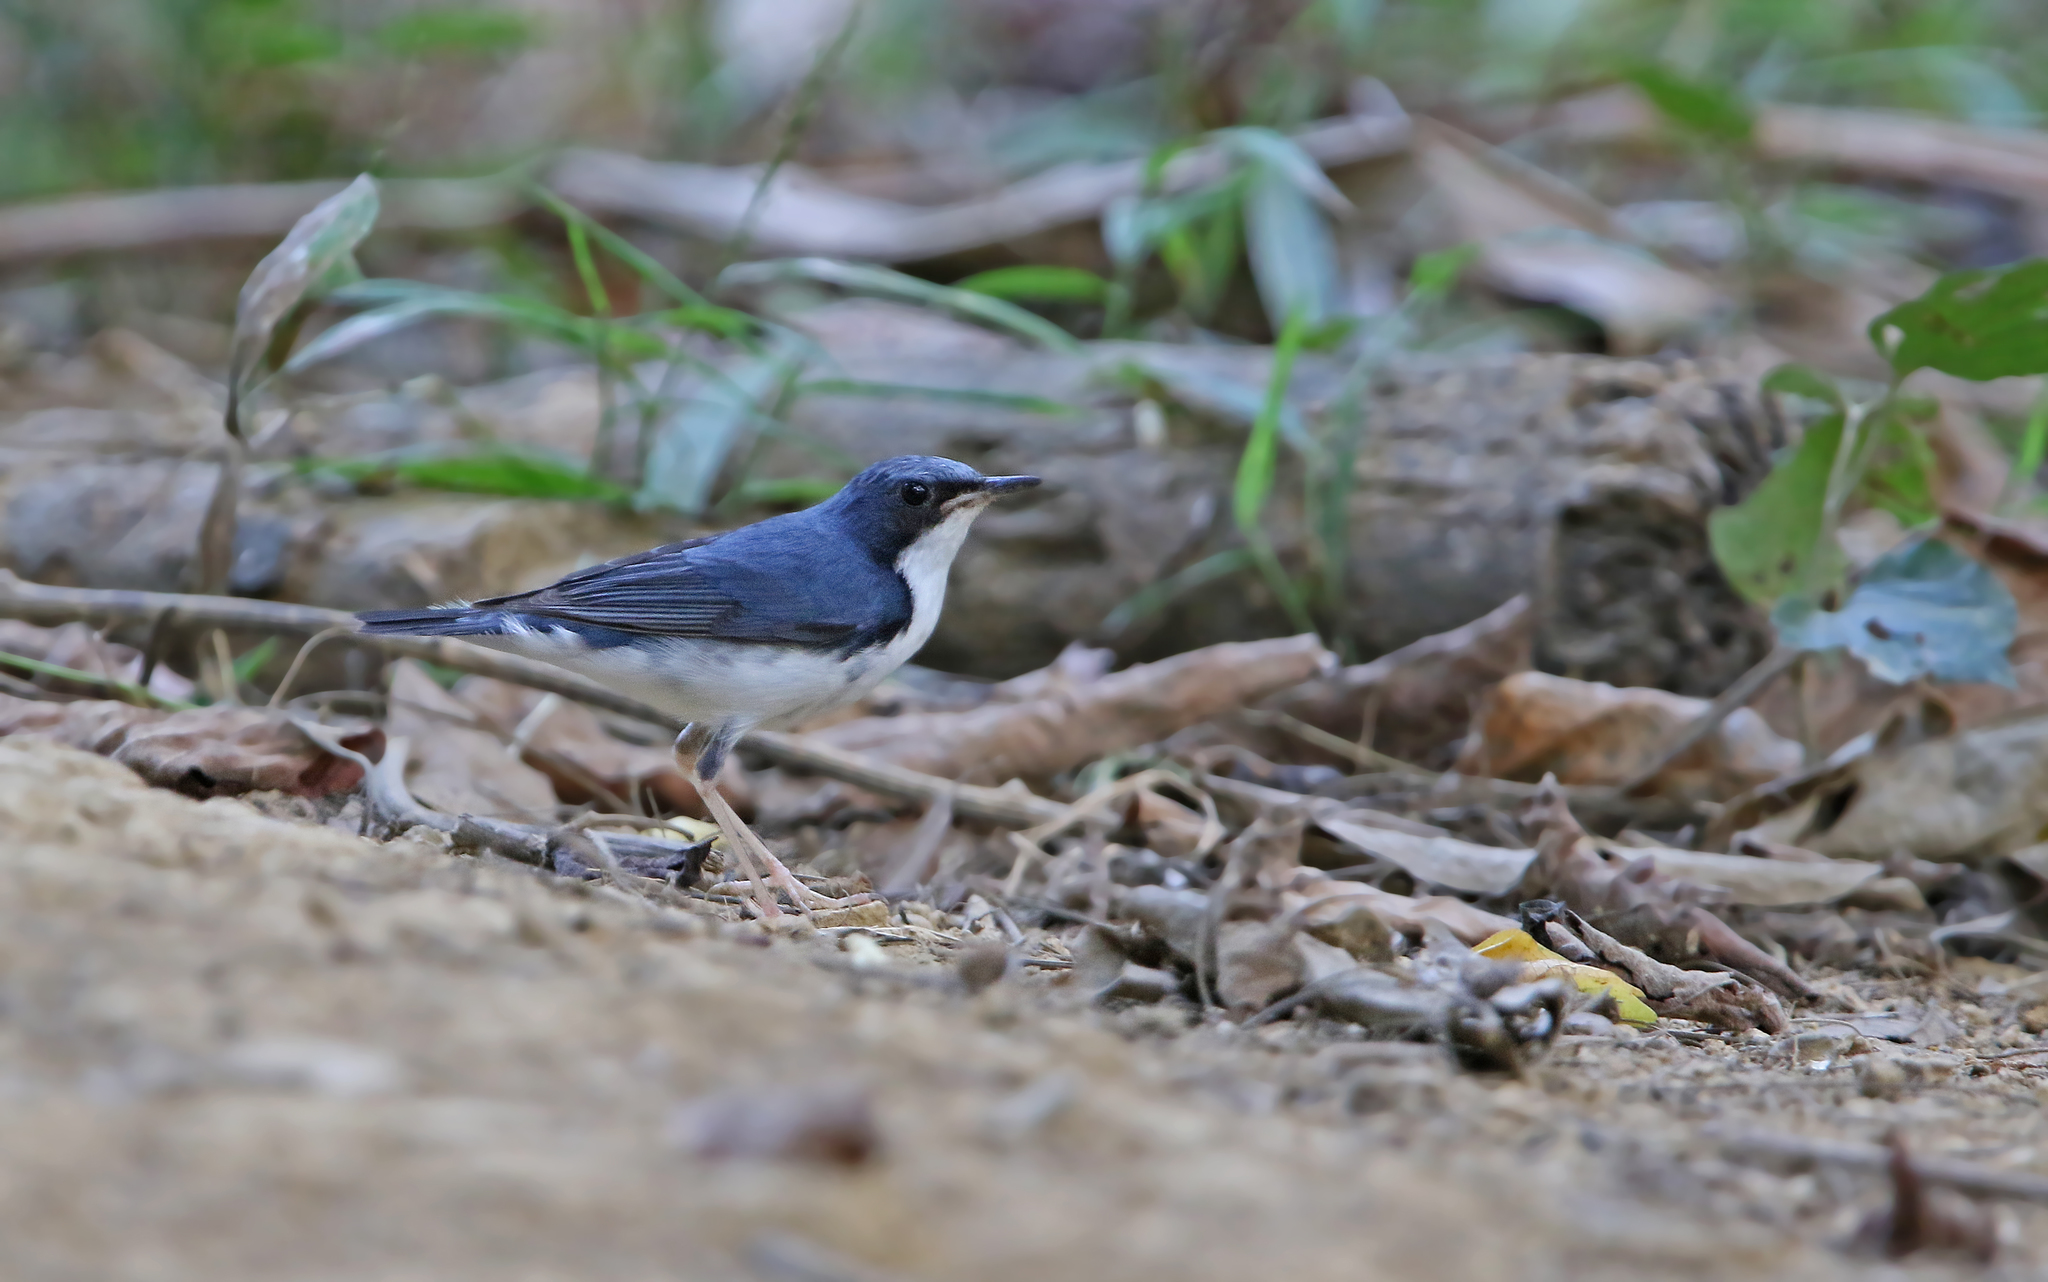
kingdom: Animalia
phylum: Chordata
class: Aves
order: Passeriformes
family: Muscicapidae
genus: Luscinia
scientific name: Luscinia cyane
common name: Siberian blue robin
